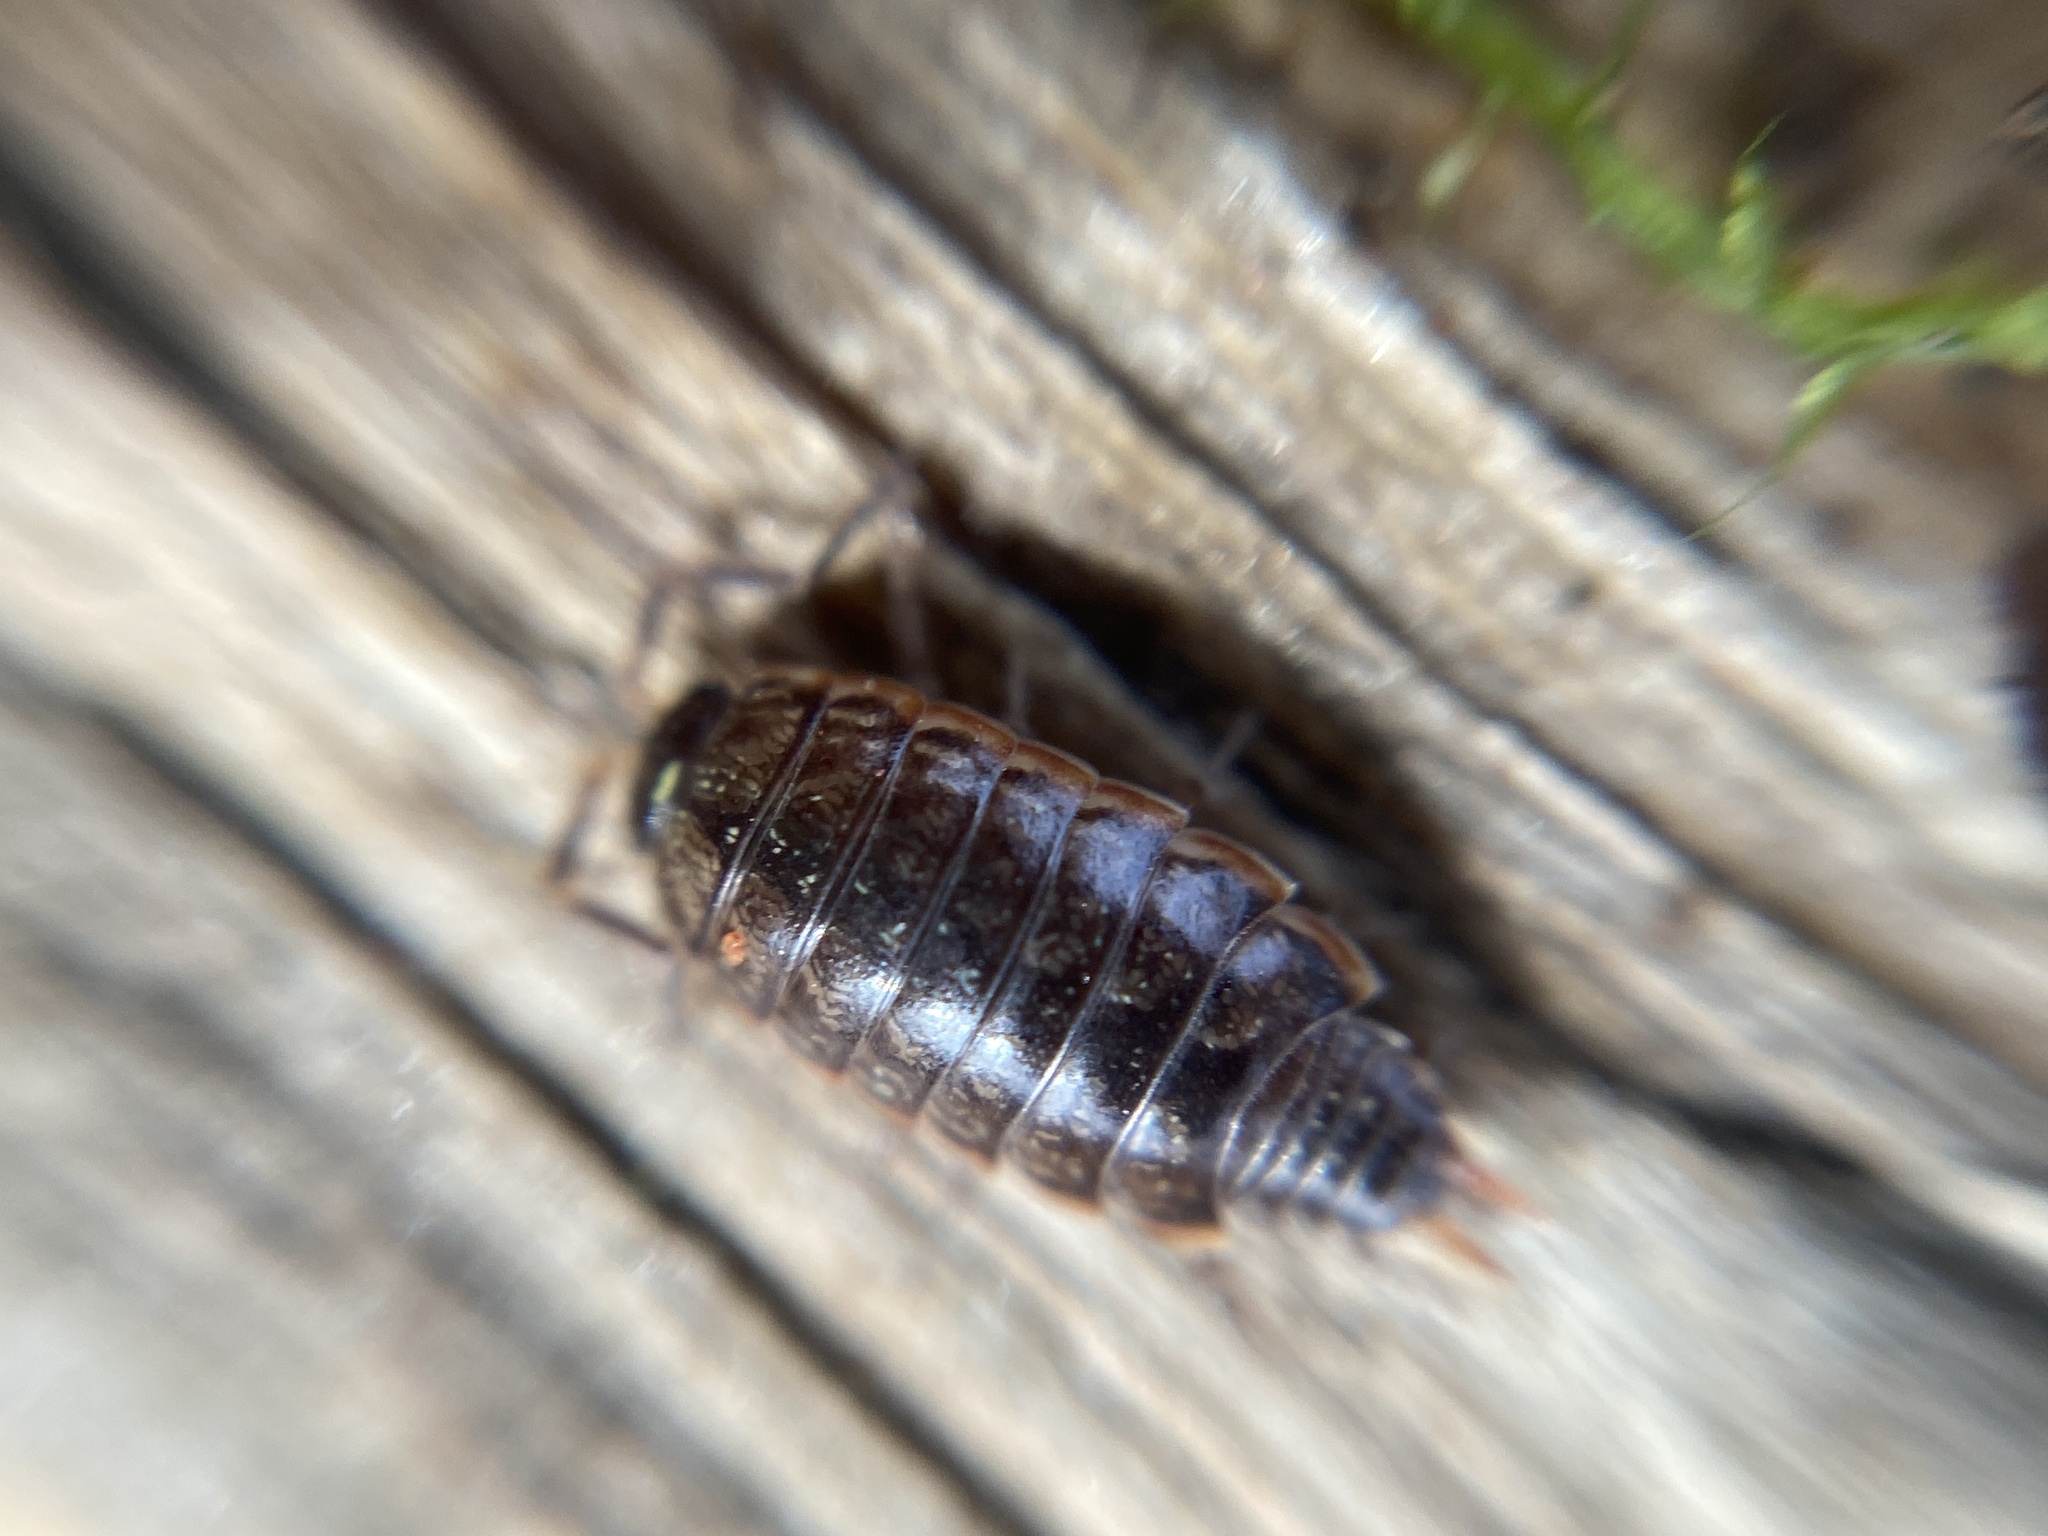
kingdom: Animalia
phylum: Arthropoda
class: Malacostraca
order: Isopoda
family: Philosciidae
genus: Philoscia
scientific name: Philoscia muscorum
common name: Common striped woodlouse
